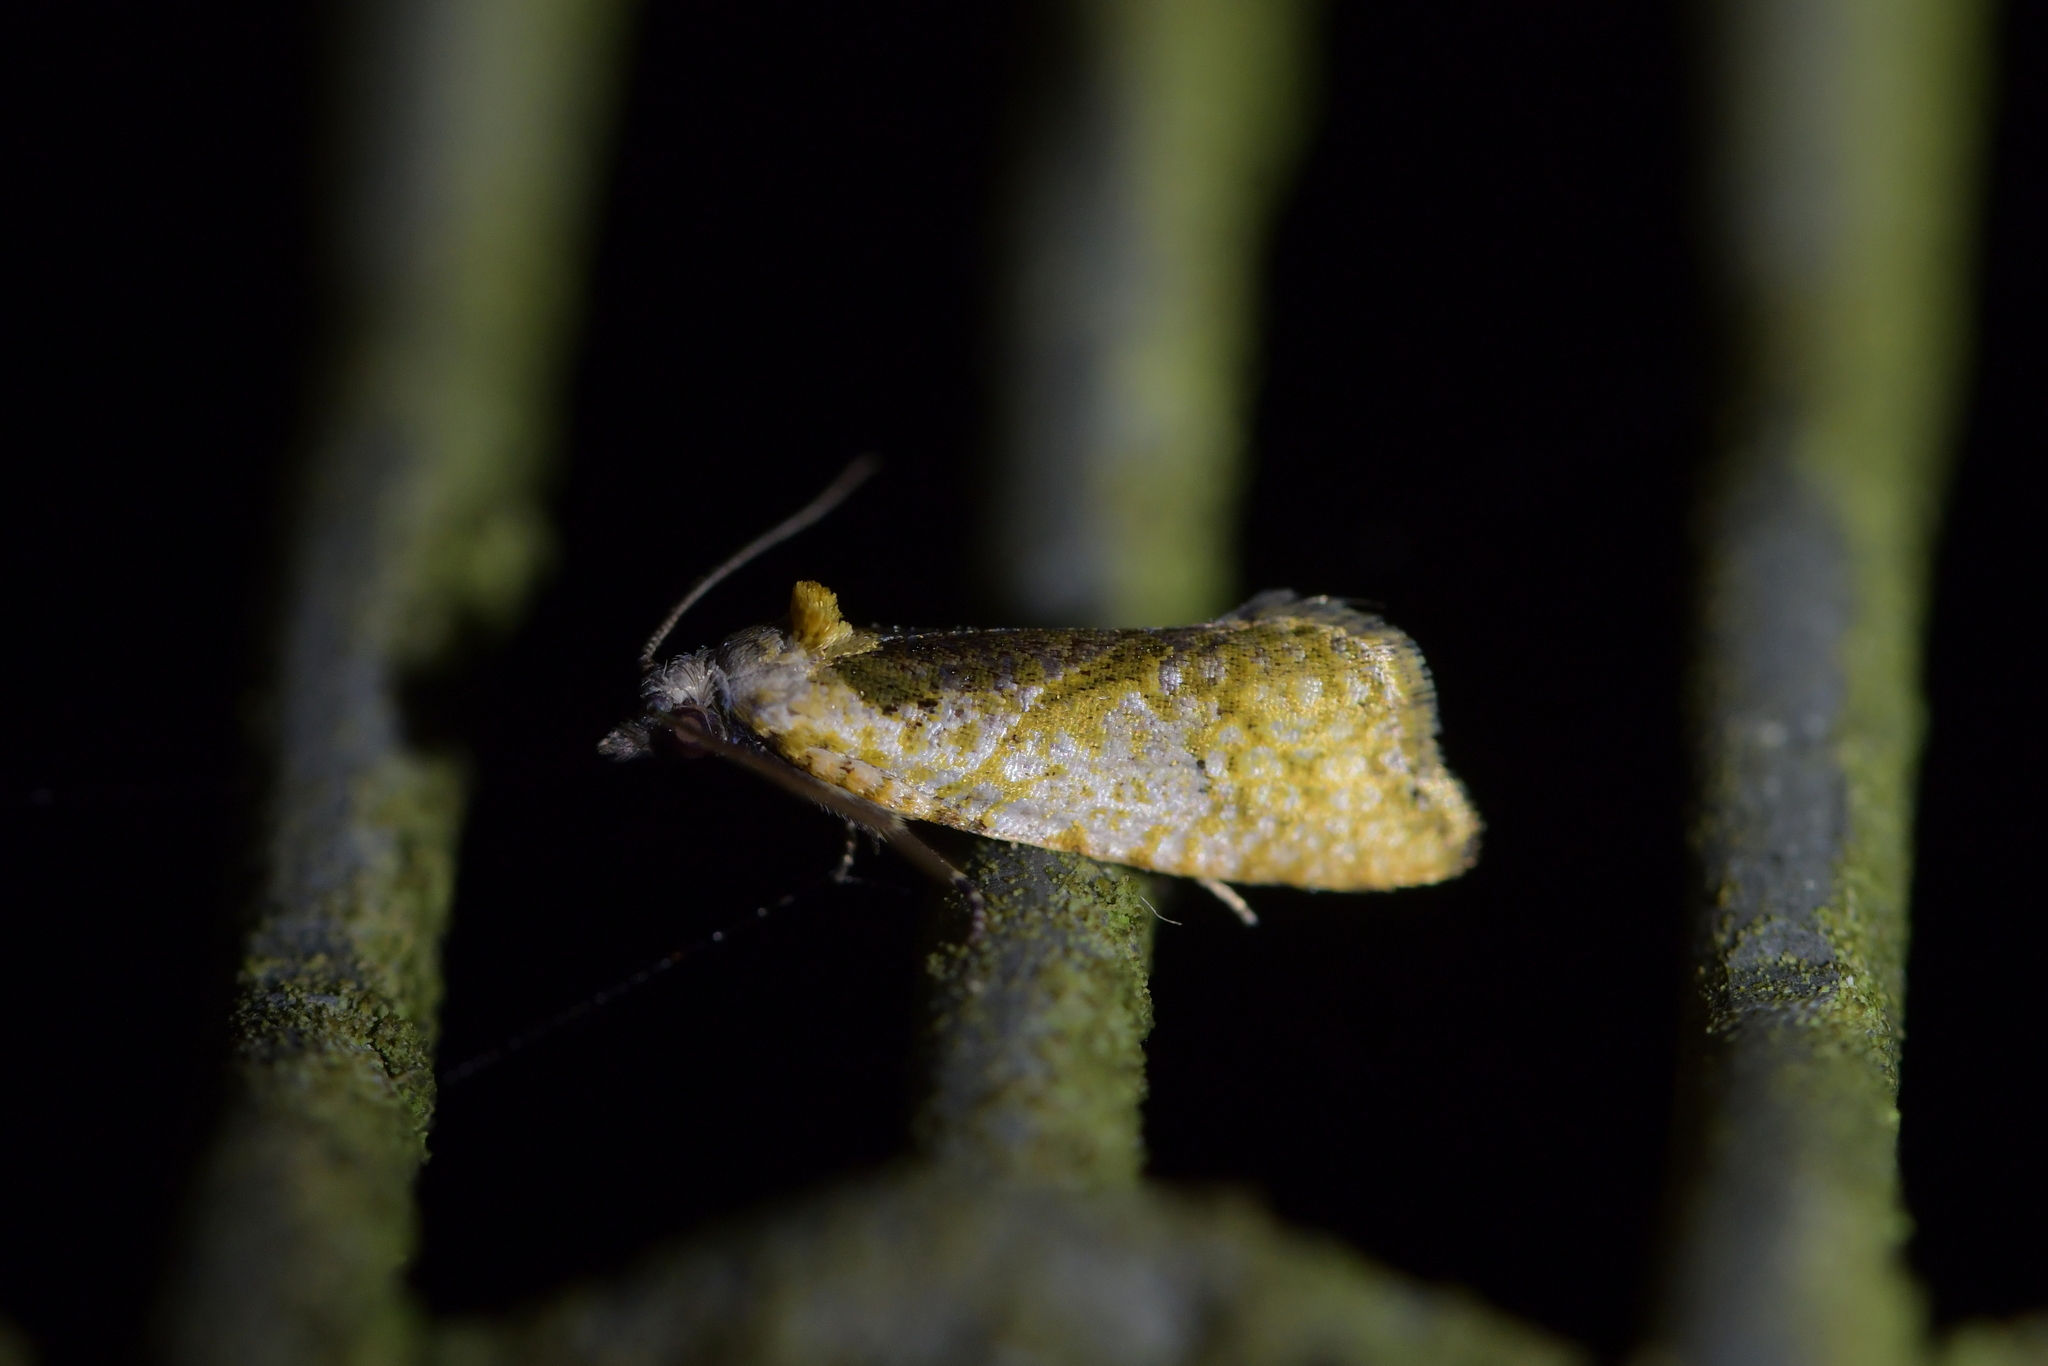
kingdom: Animalia
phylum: Arthropoda
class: Insecta
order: Lepidoptera
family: Tortricidae
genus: Pyrgotis
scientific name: Pyrgotis plagiatana
